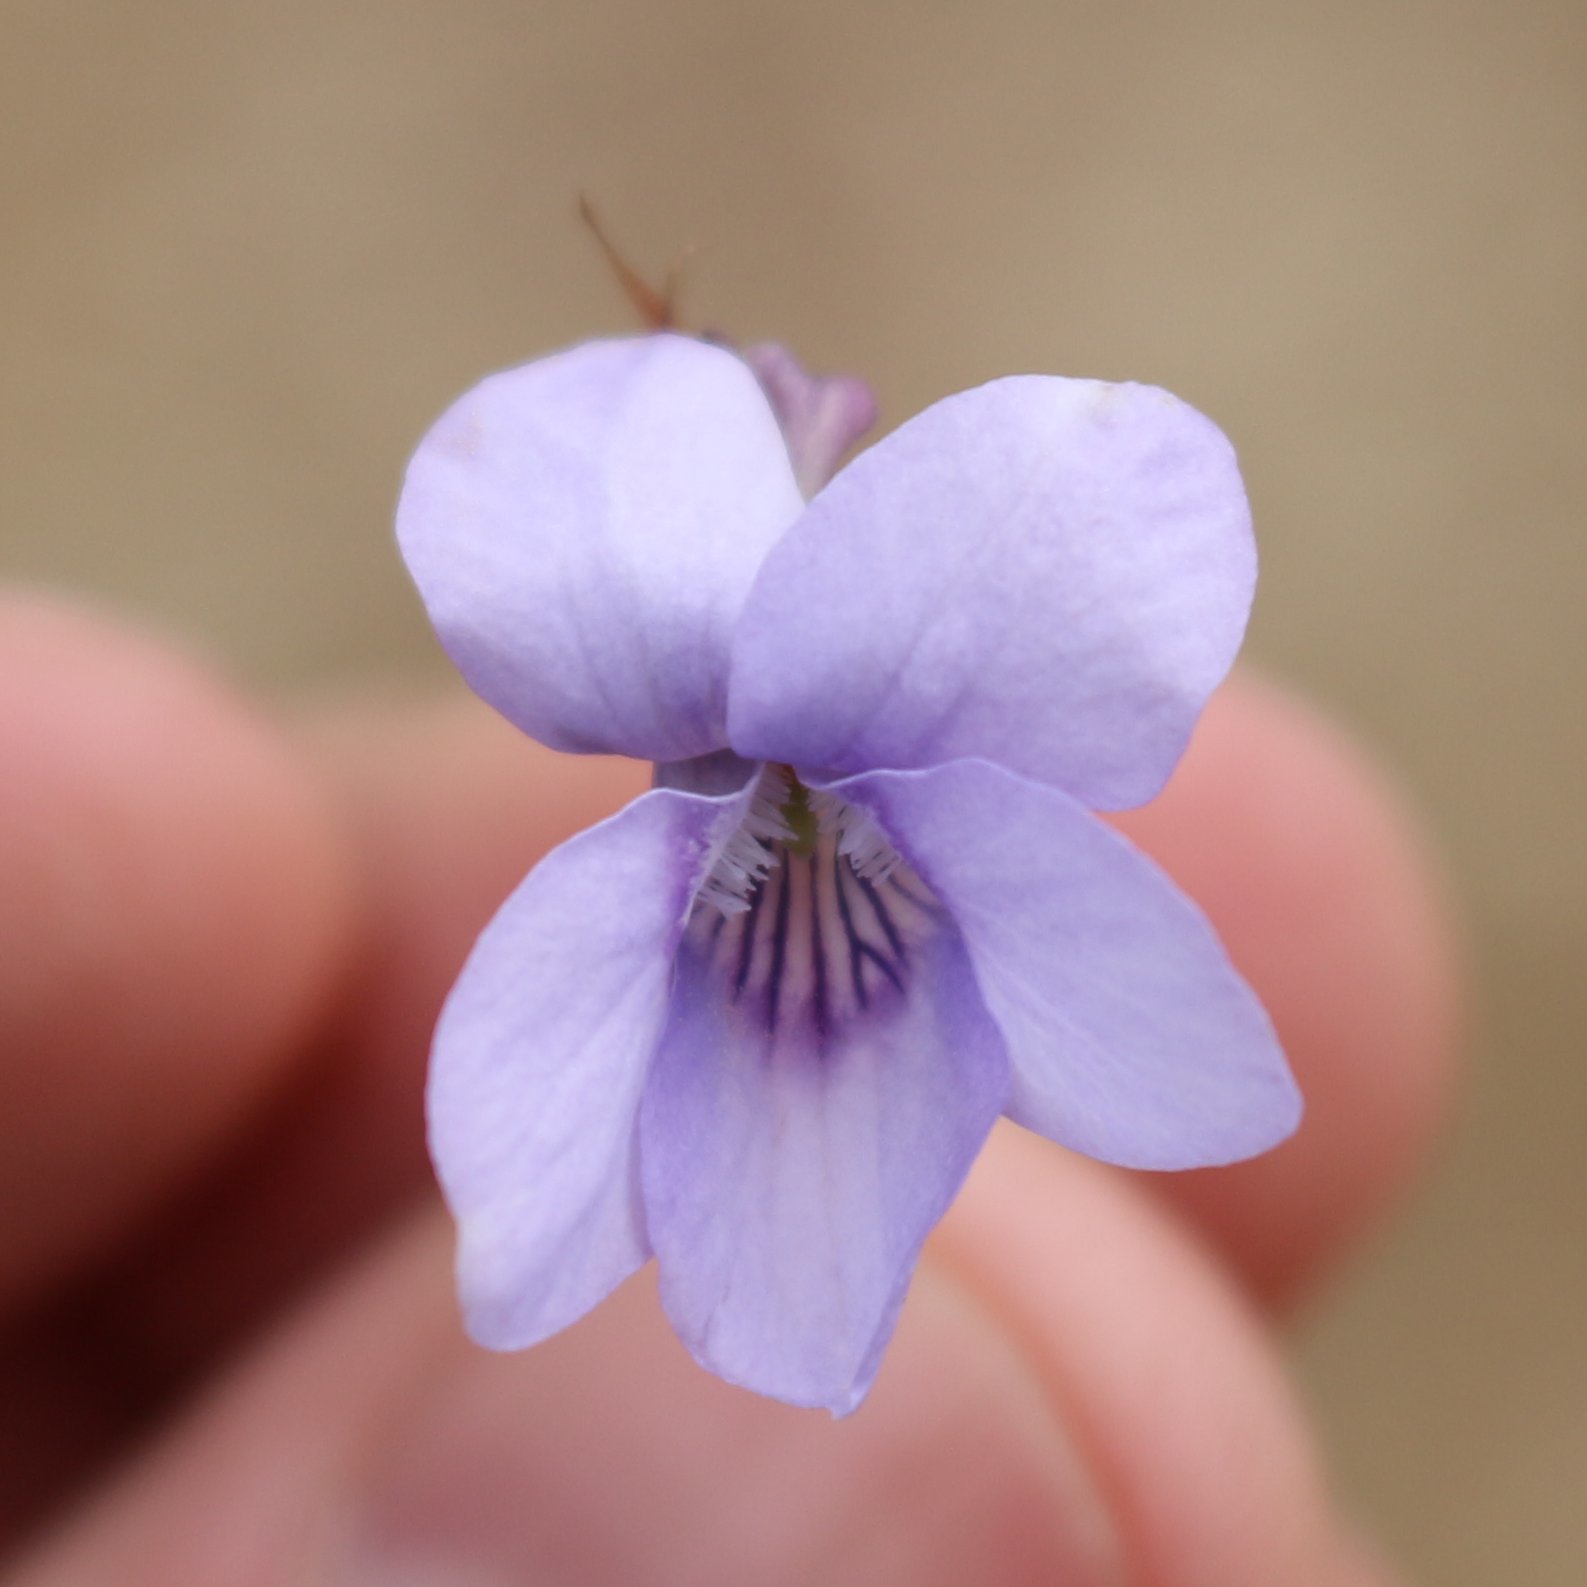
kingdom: Plantae
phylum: Tracheophyta
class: Magnoliopsida
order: Malpighiales
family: Violaceae
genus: Viola
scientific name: Viola alba
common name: White violet
